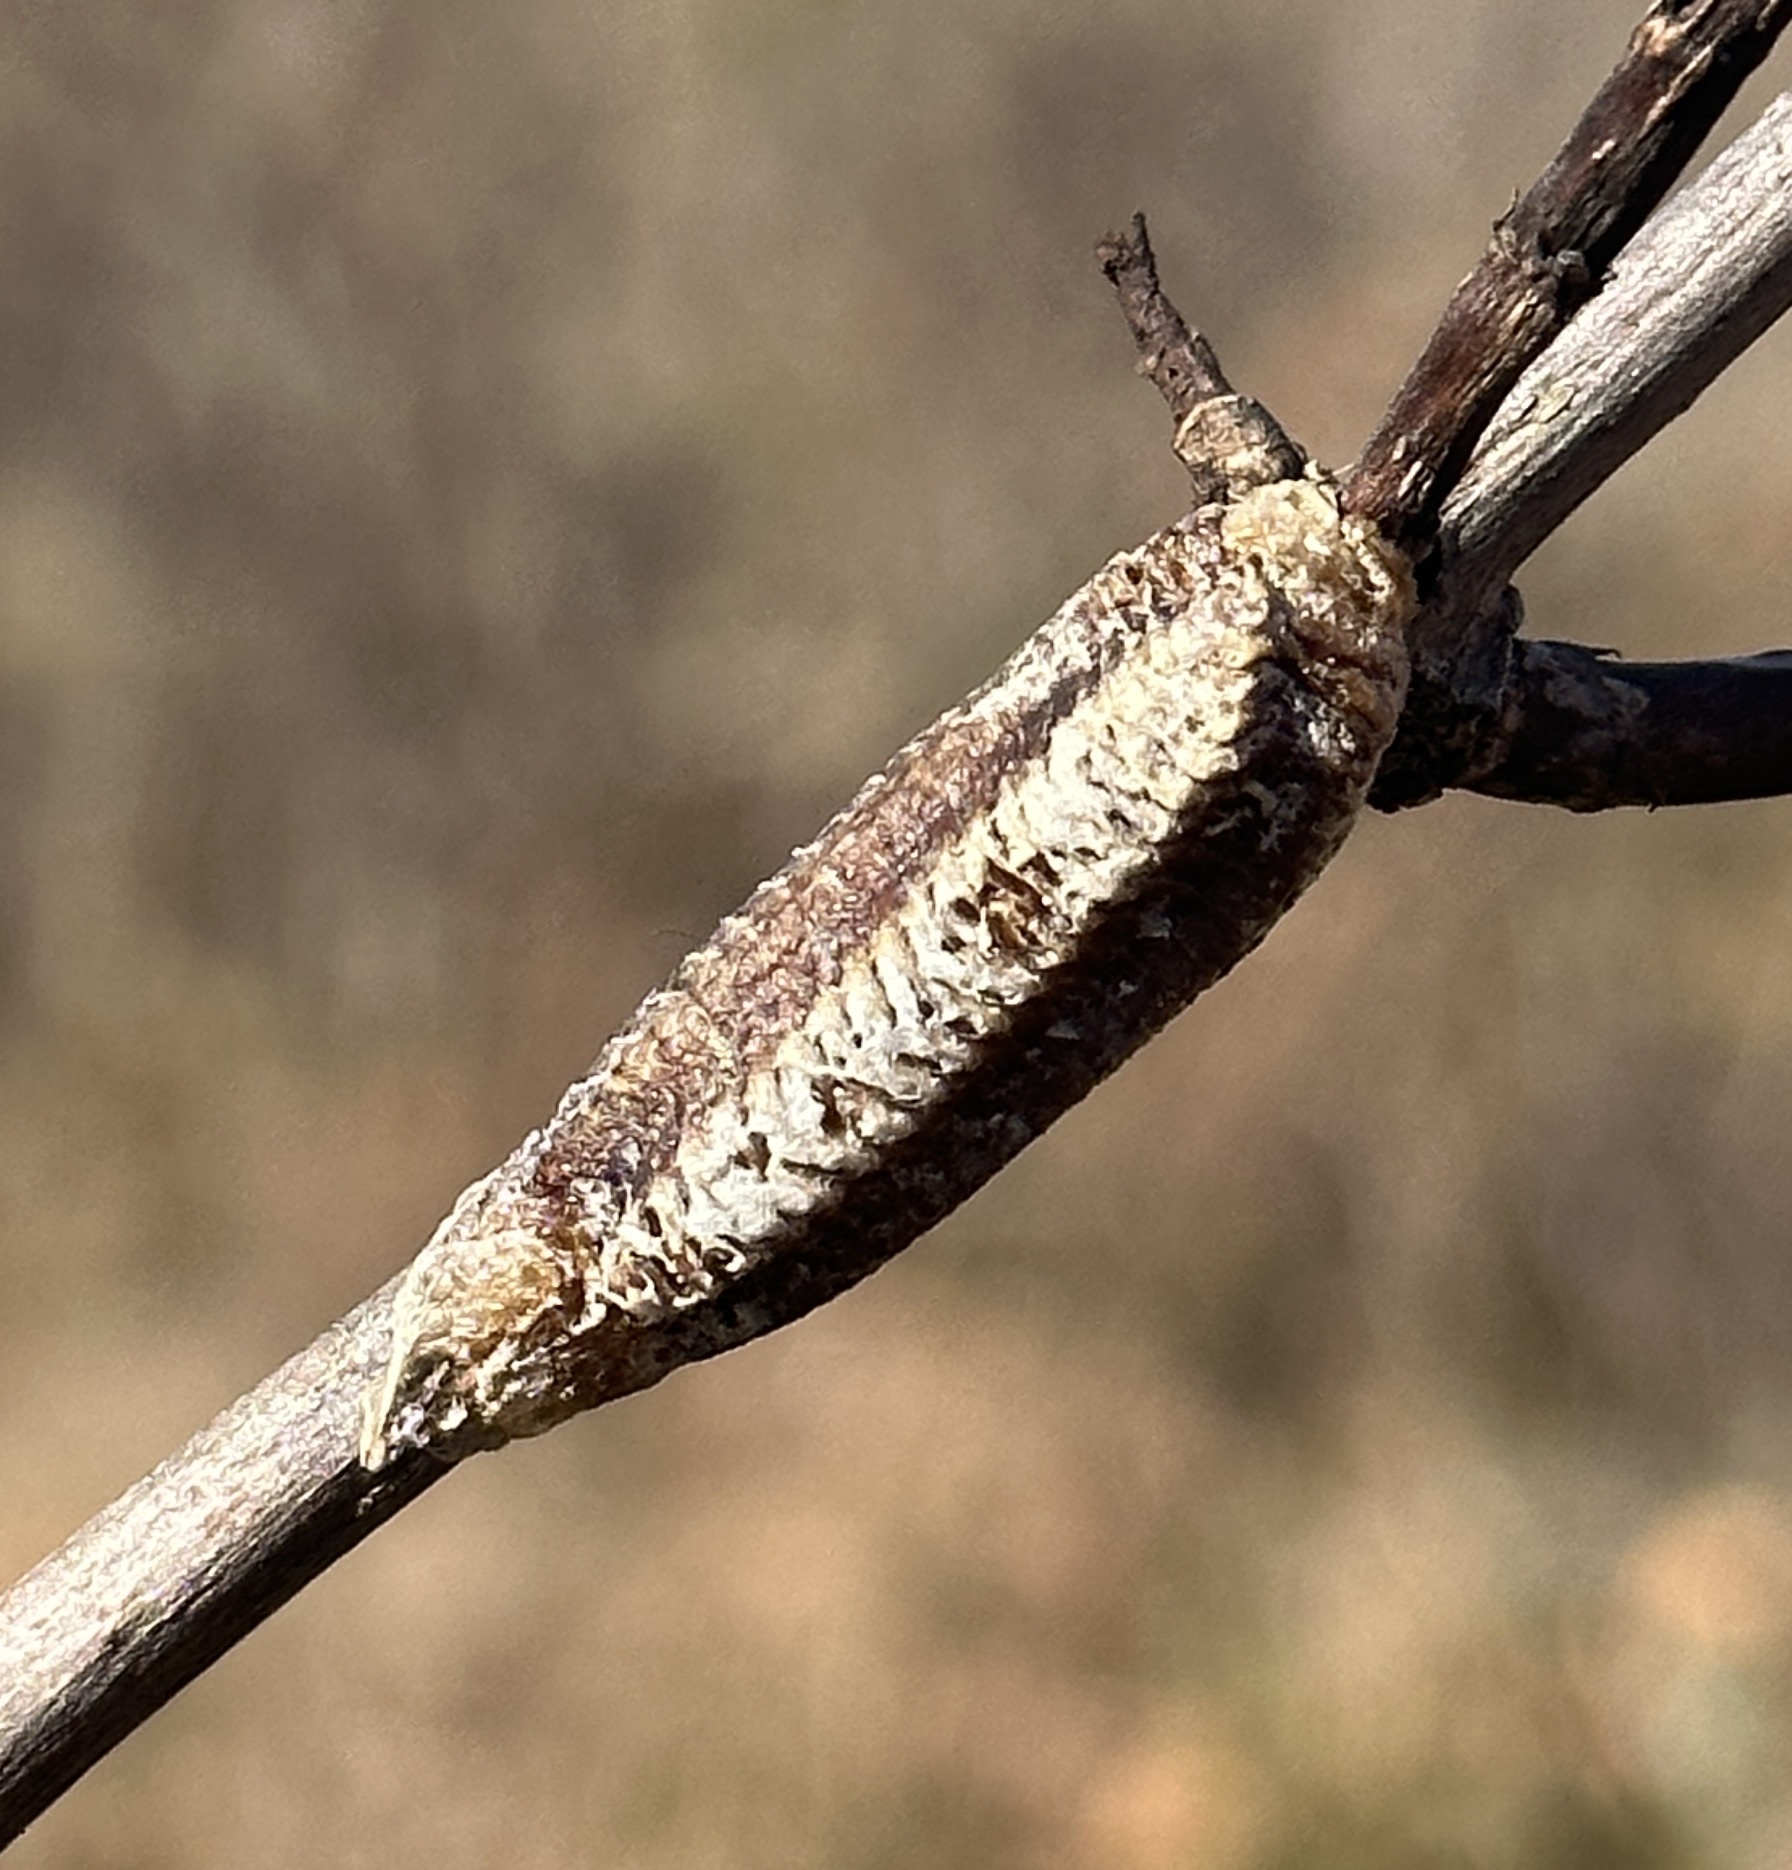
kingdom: Animalia
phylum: Arthropoda
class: Insecta
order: Mantodea
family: Mantidae
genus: Stagmomantis
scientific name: Stagmomantis carolina
